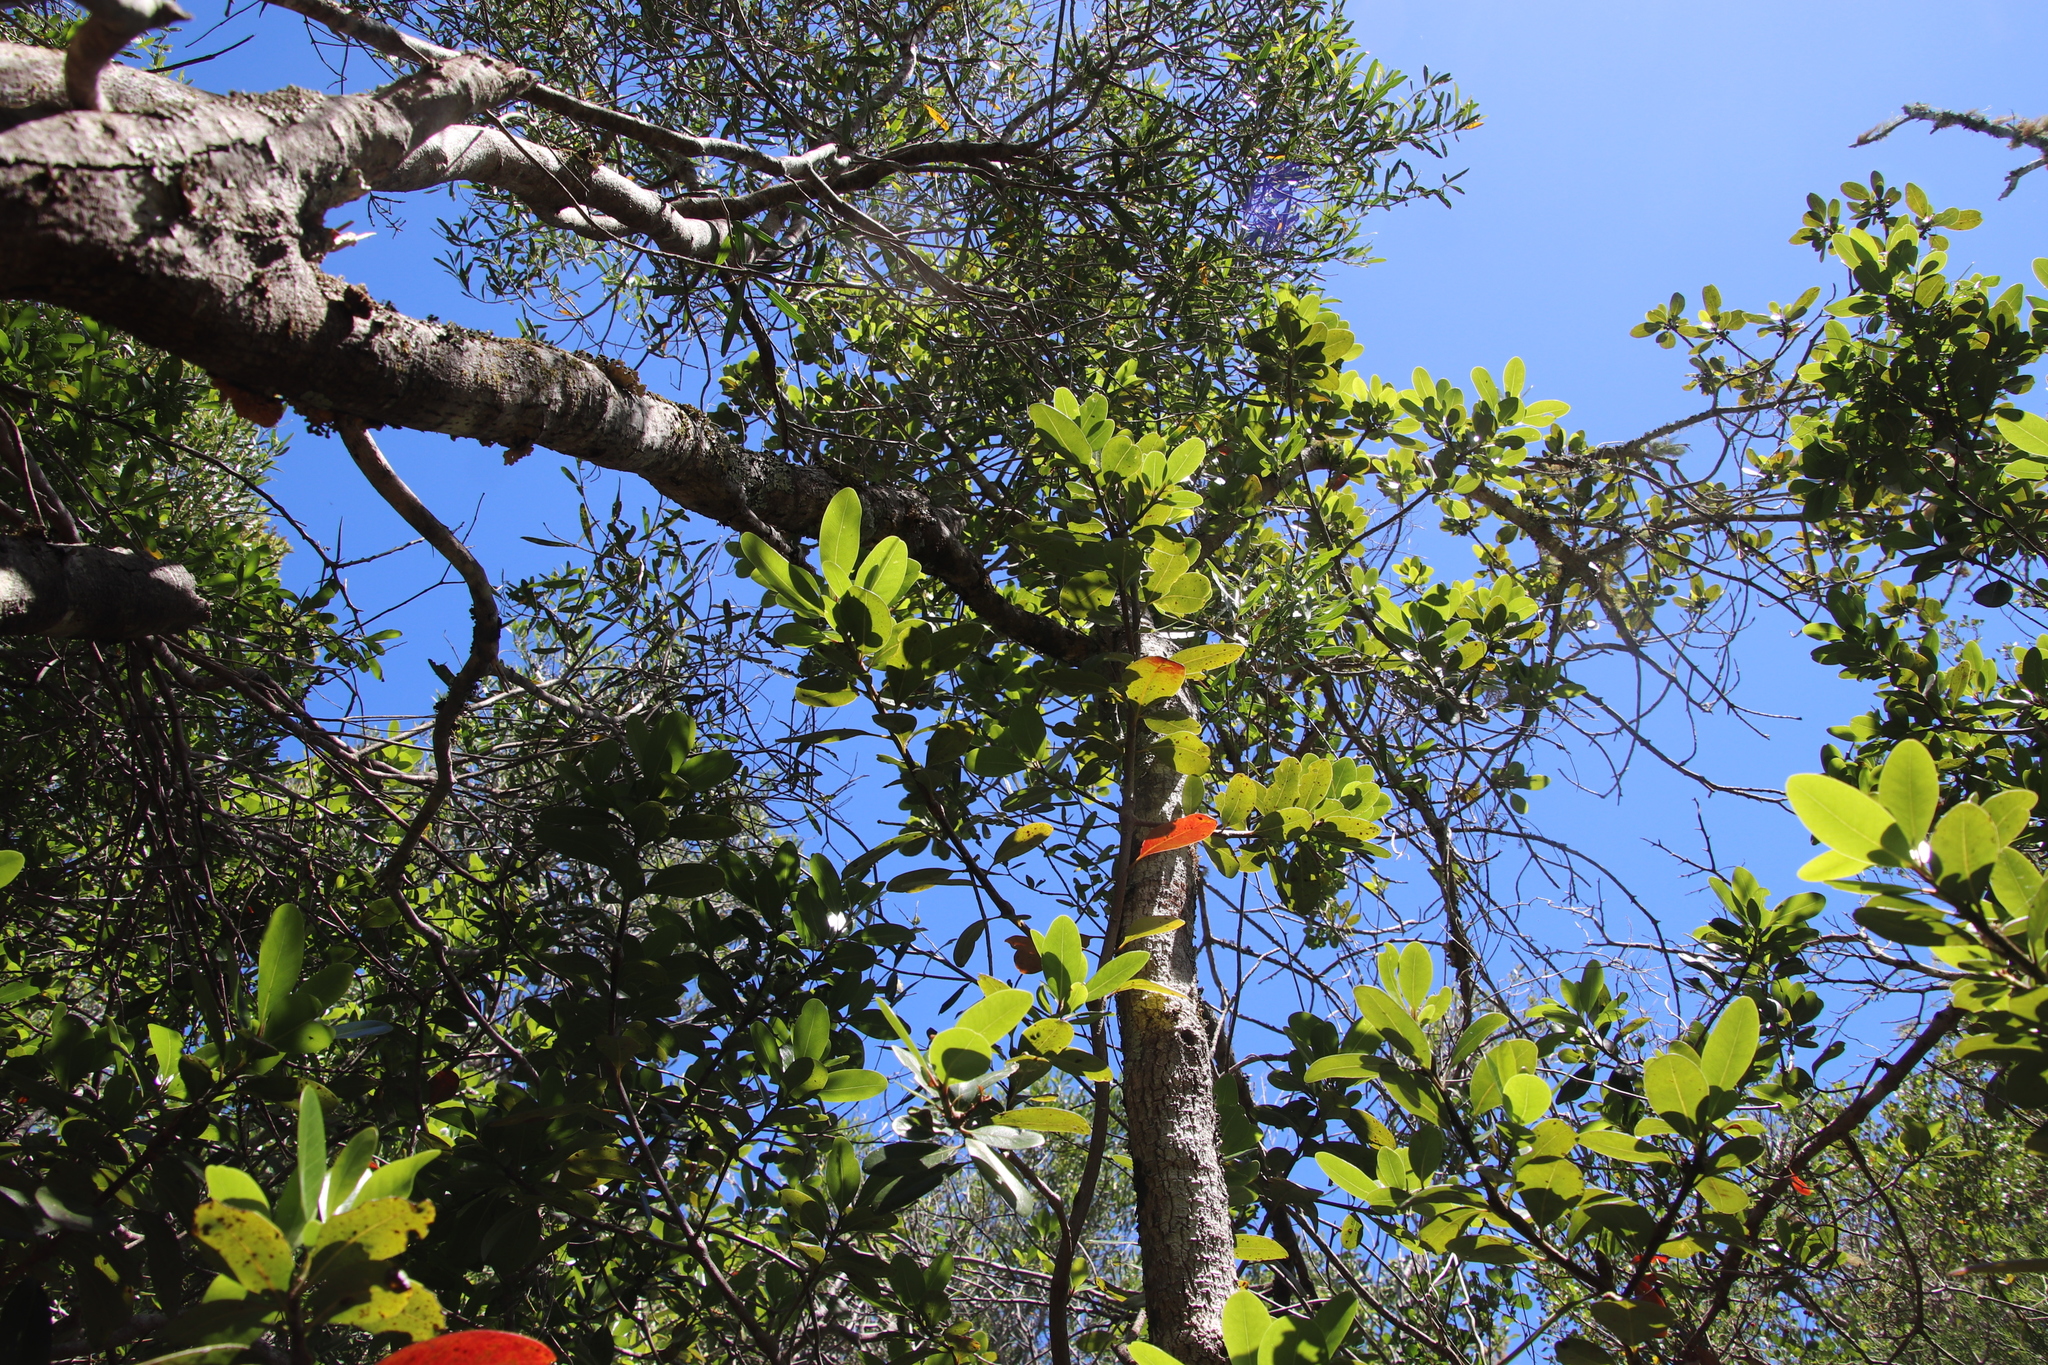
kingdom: Plantae
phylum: Tracheophyta
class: Magnoliopsida
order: Ericales
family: Sapotaceae
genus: Sideroxylon
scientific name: Sideroxylon inerme
